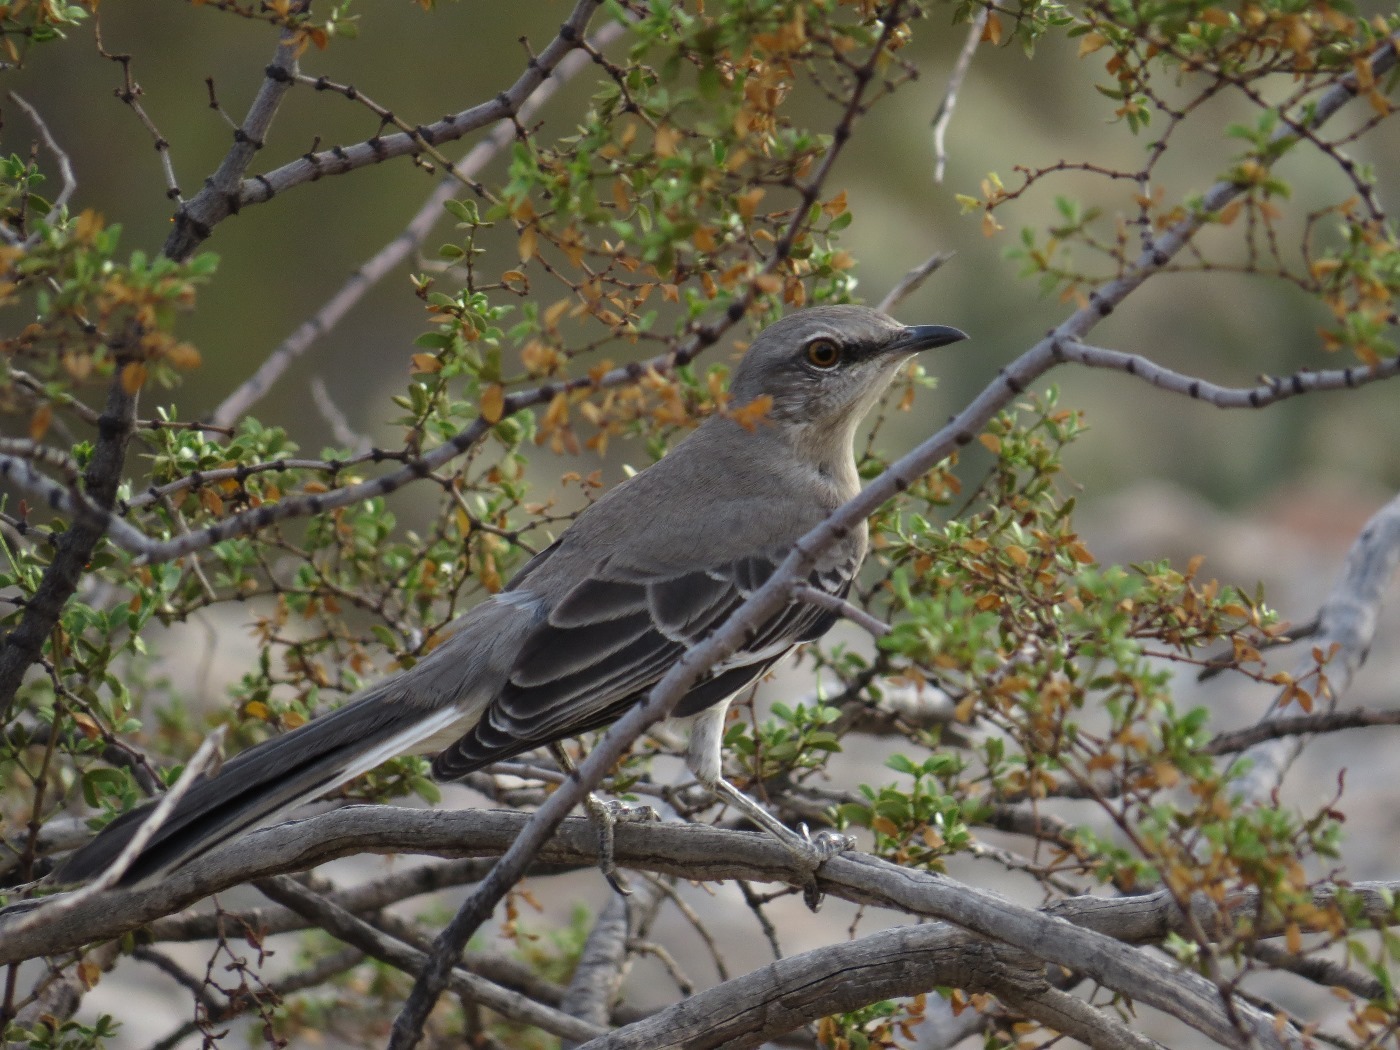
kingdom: Animalia
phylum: Chordata
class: Aves
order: Passeriformes
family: Mimidae
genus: Mimus
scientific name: Mimus polyglottos
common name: Northern mockingbird
